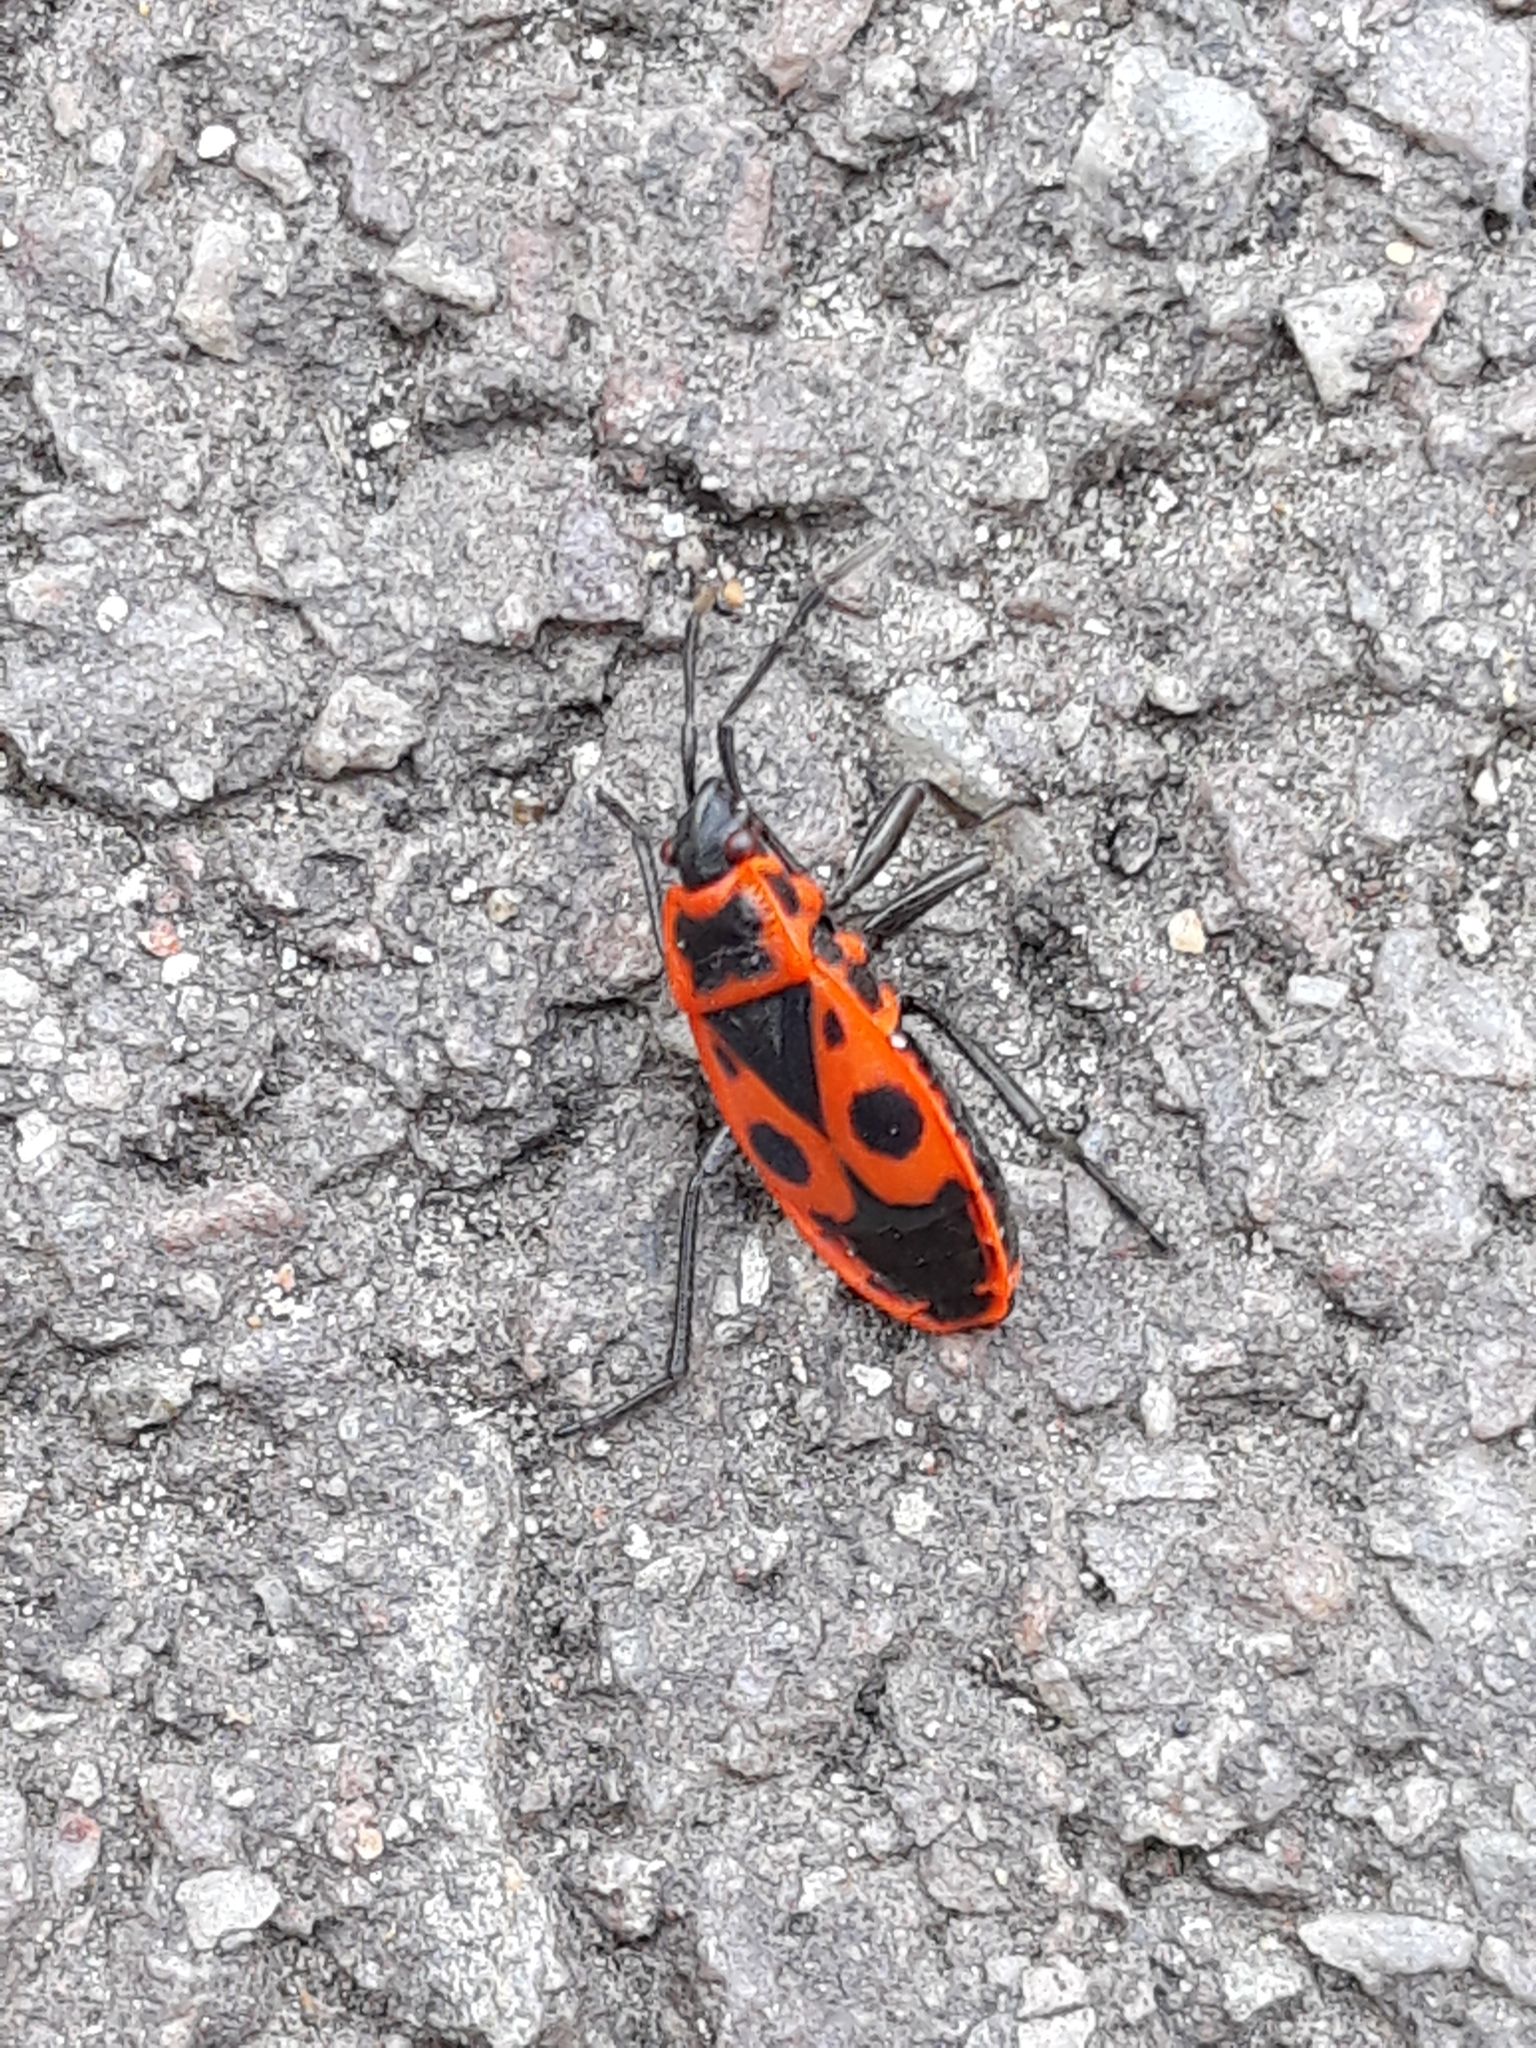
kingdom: Animalia
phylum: Arthropoda
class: Insecta
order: Hemiptera
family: Pyrrhocoridae
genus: Pyrrhocoris
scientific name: Pyrrhocoris apterus
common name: Firebug
